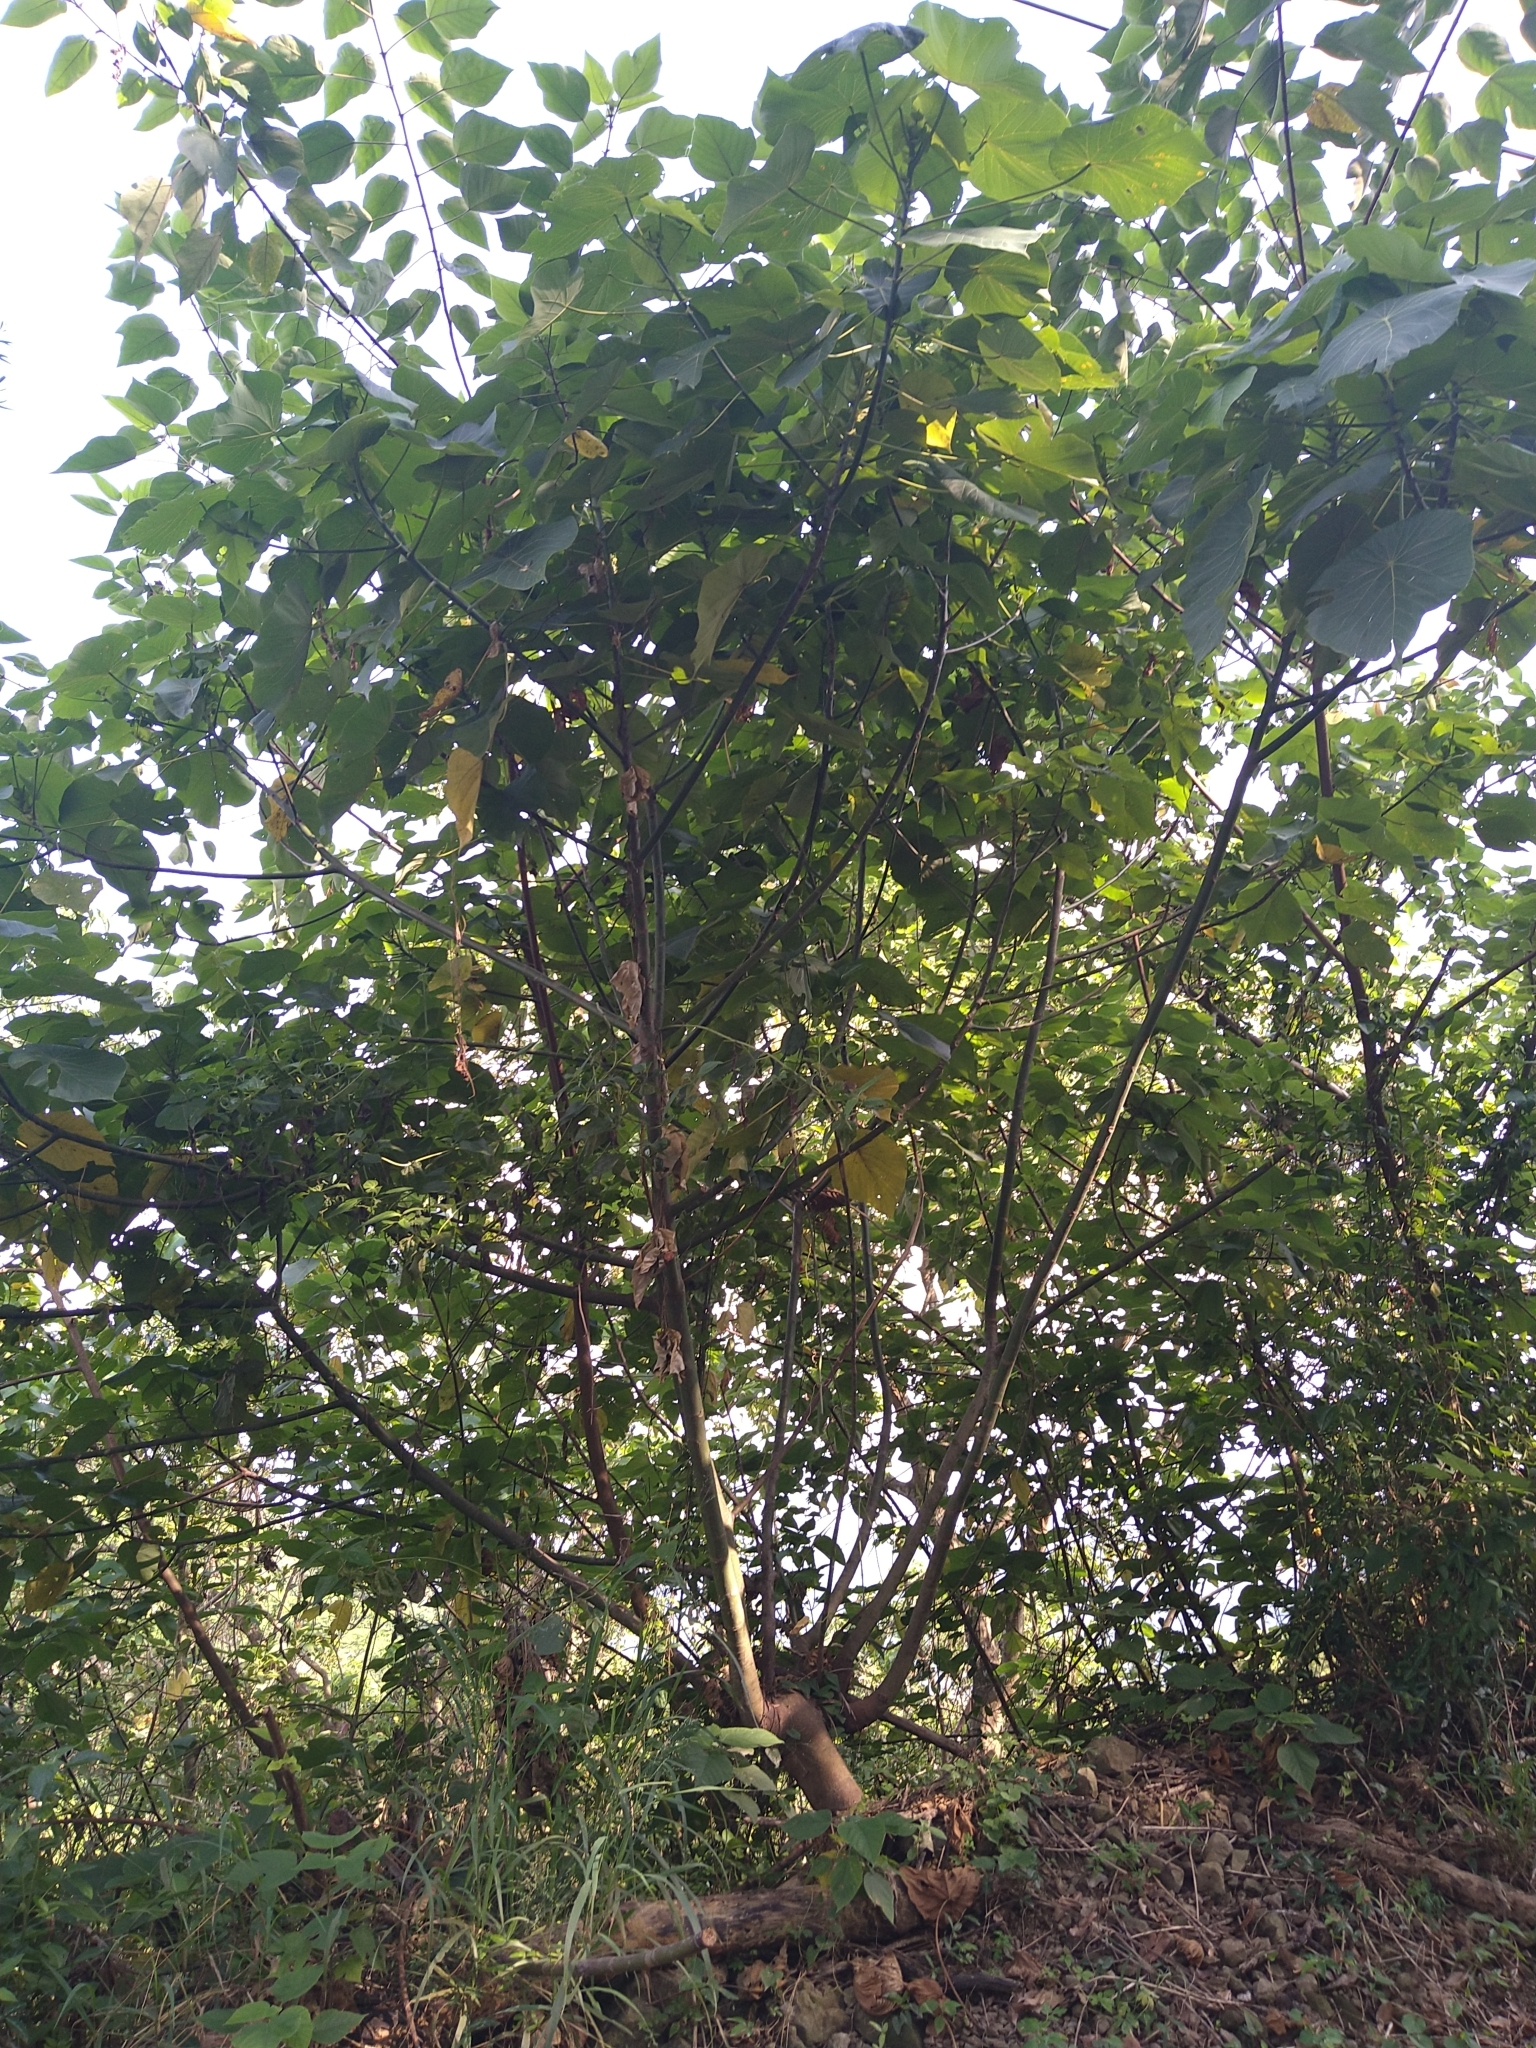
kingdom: Plantae
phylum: Tracheophyta
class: Magnoliopsida
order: Malpighiales
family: Euphorbiaceae
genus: Macaranga
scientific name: Macaranga tanarius
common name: Parasol leaf tree
